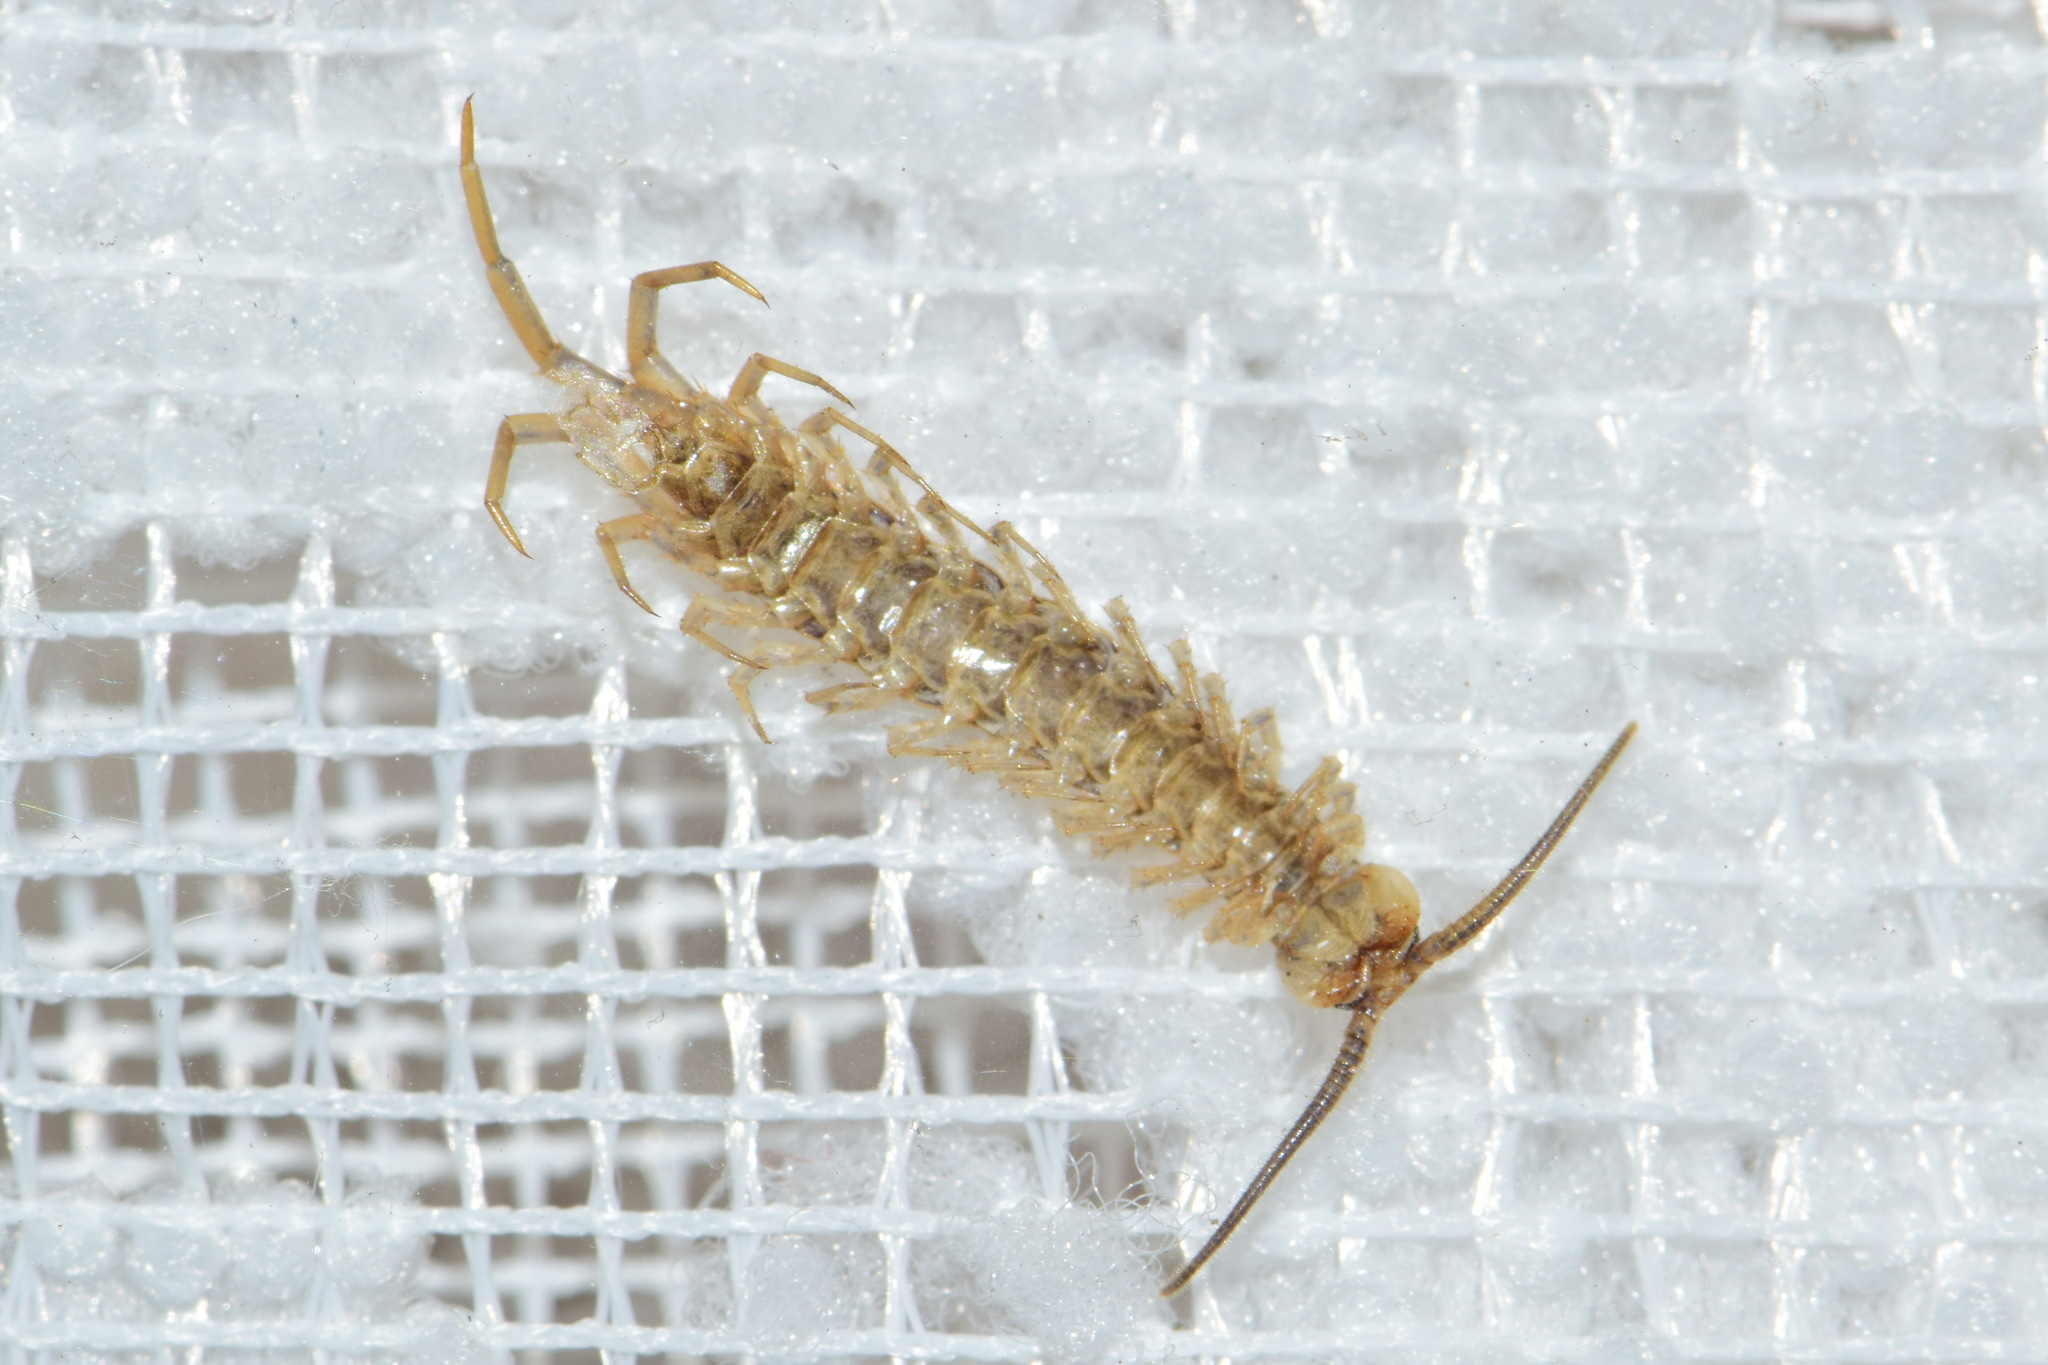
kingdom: Animalia
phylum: Arthropoda
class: Chilopoda
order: Lithobiomorpha
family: Lithobiidae
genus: Lithobius
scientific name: Lithobius forficatus
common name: Centipede
